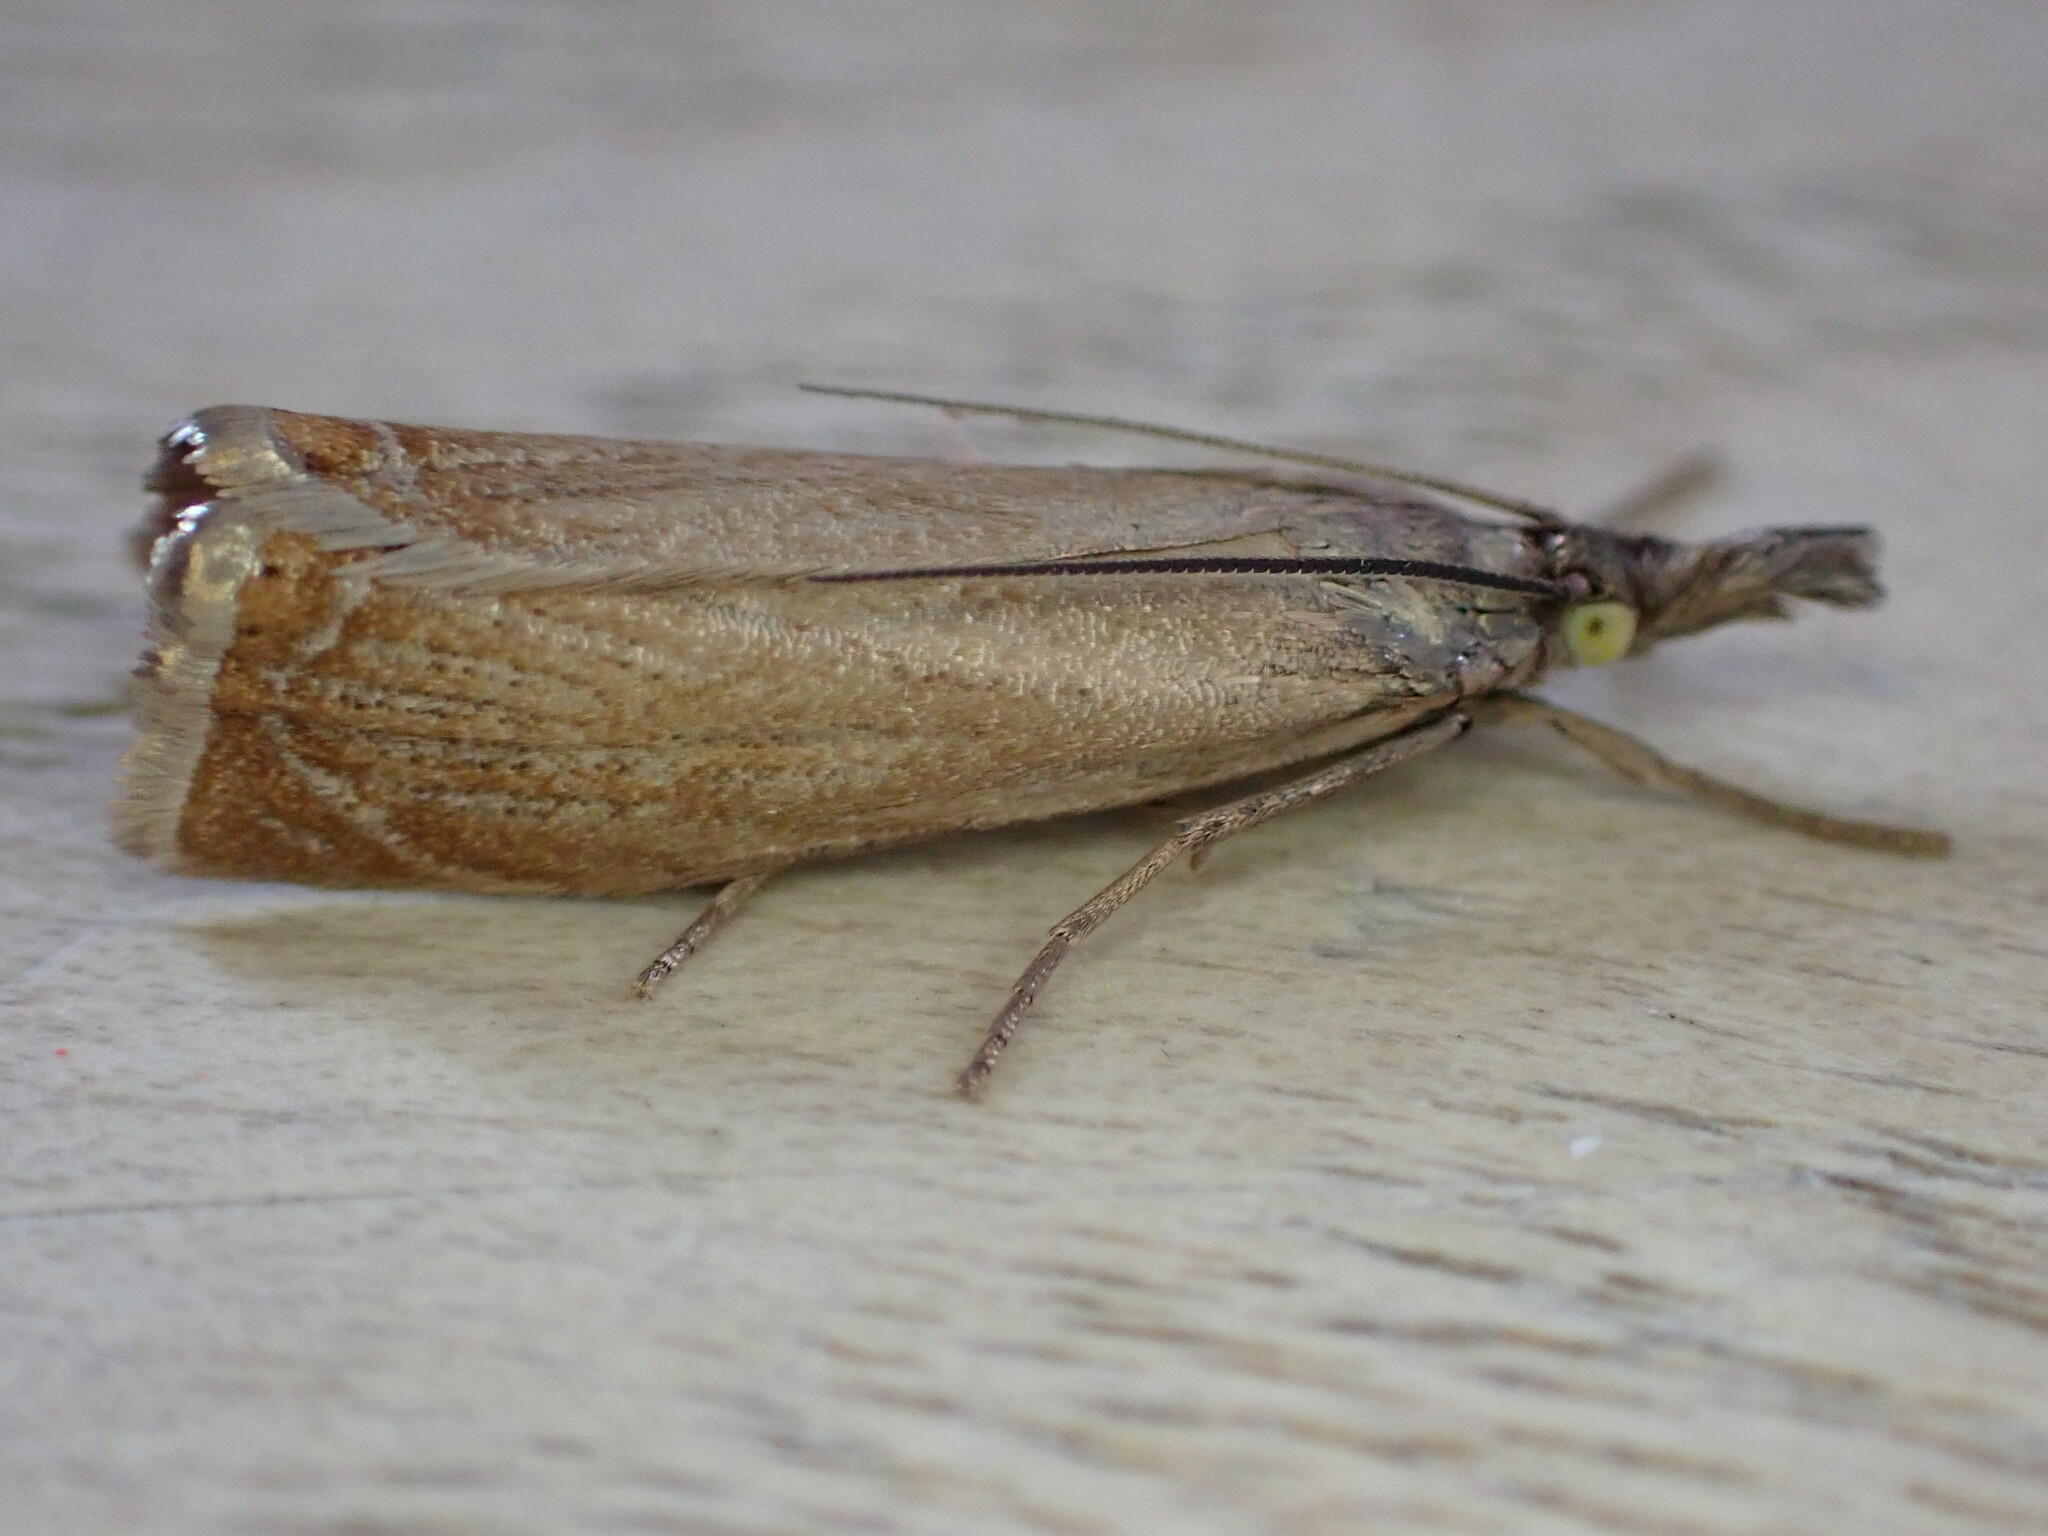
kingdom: Animalia
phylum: Arthropoda
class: Insecta
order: Lepidoptera
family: Crambidae
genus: Chrysoteuchia
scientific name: Chrysoteuchia culmella
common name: Garden grass-veneer
